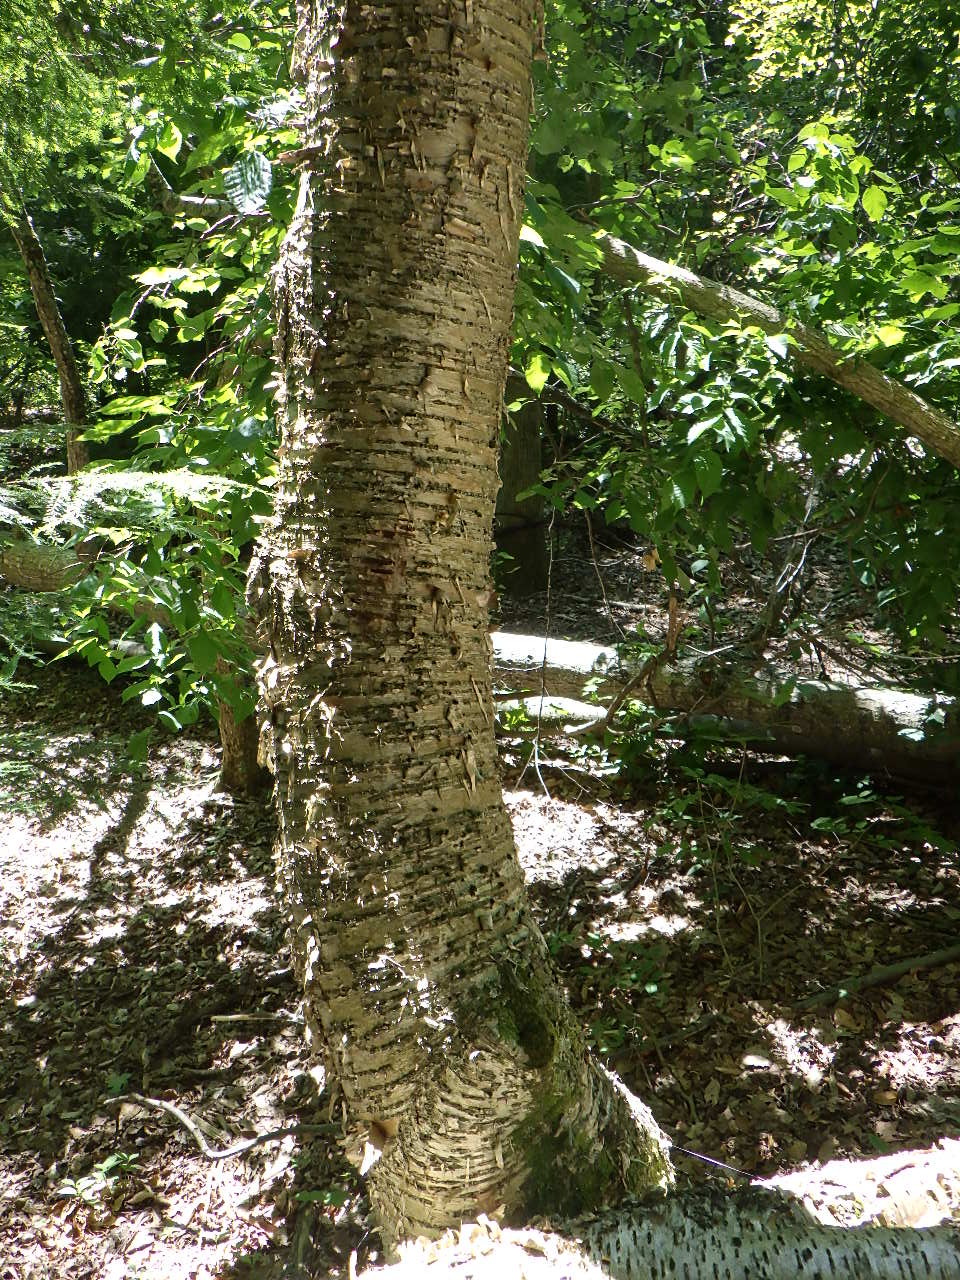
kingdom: Plantae
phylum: Tracheophyta
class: Magnoliopsida
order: Fagales
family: Betulaceae
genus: Betula
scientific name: Betula alleghaniensis
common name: Yellow birch
